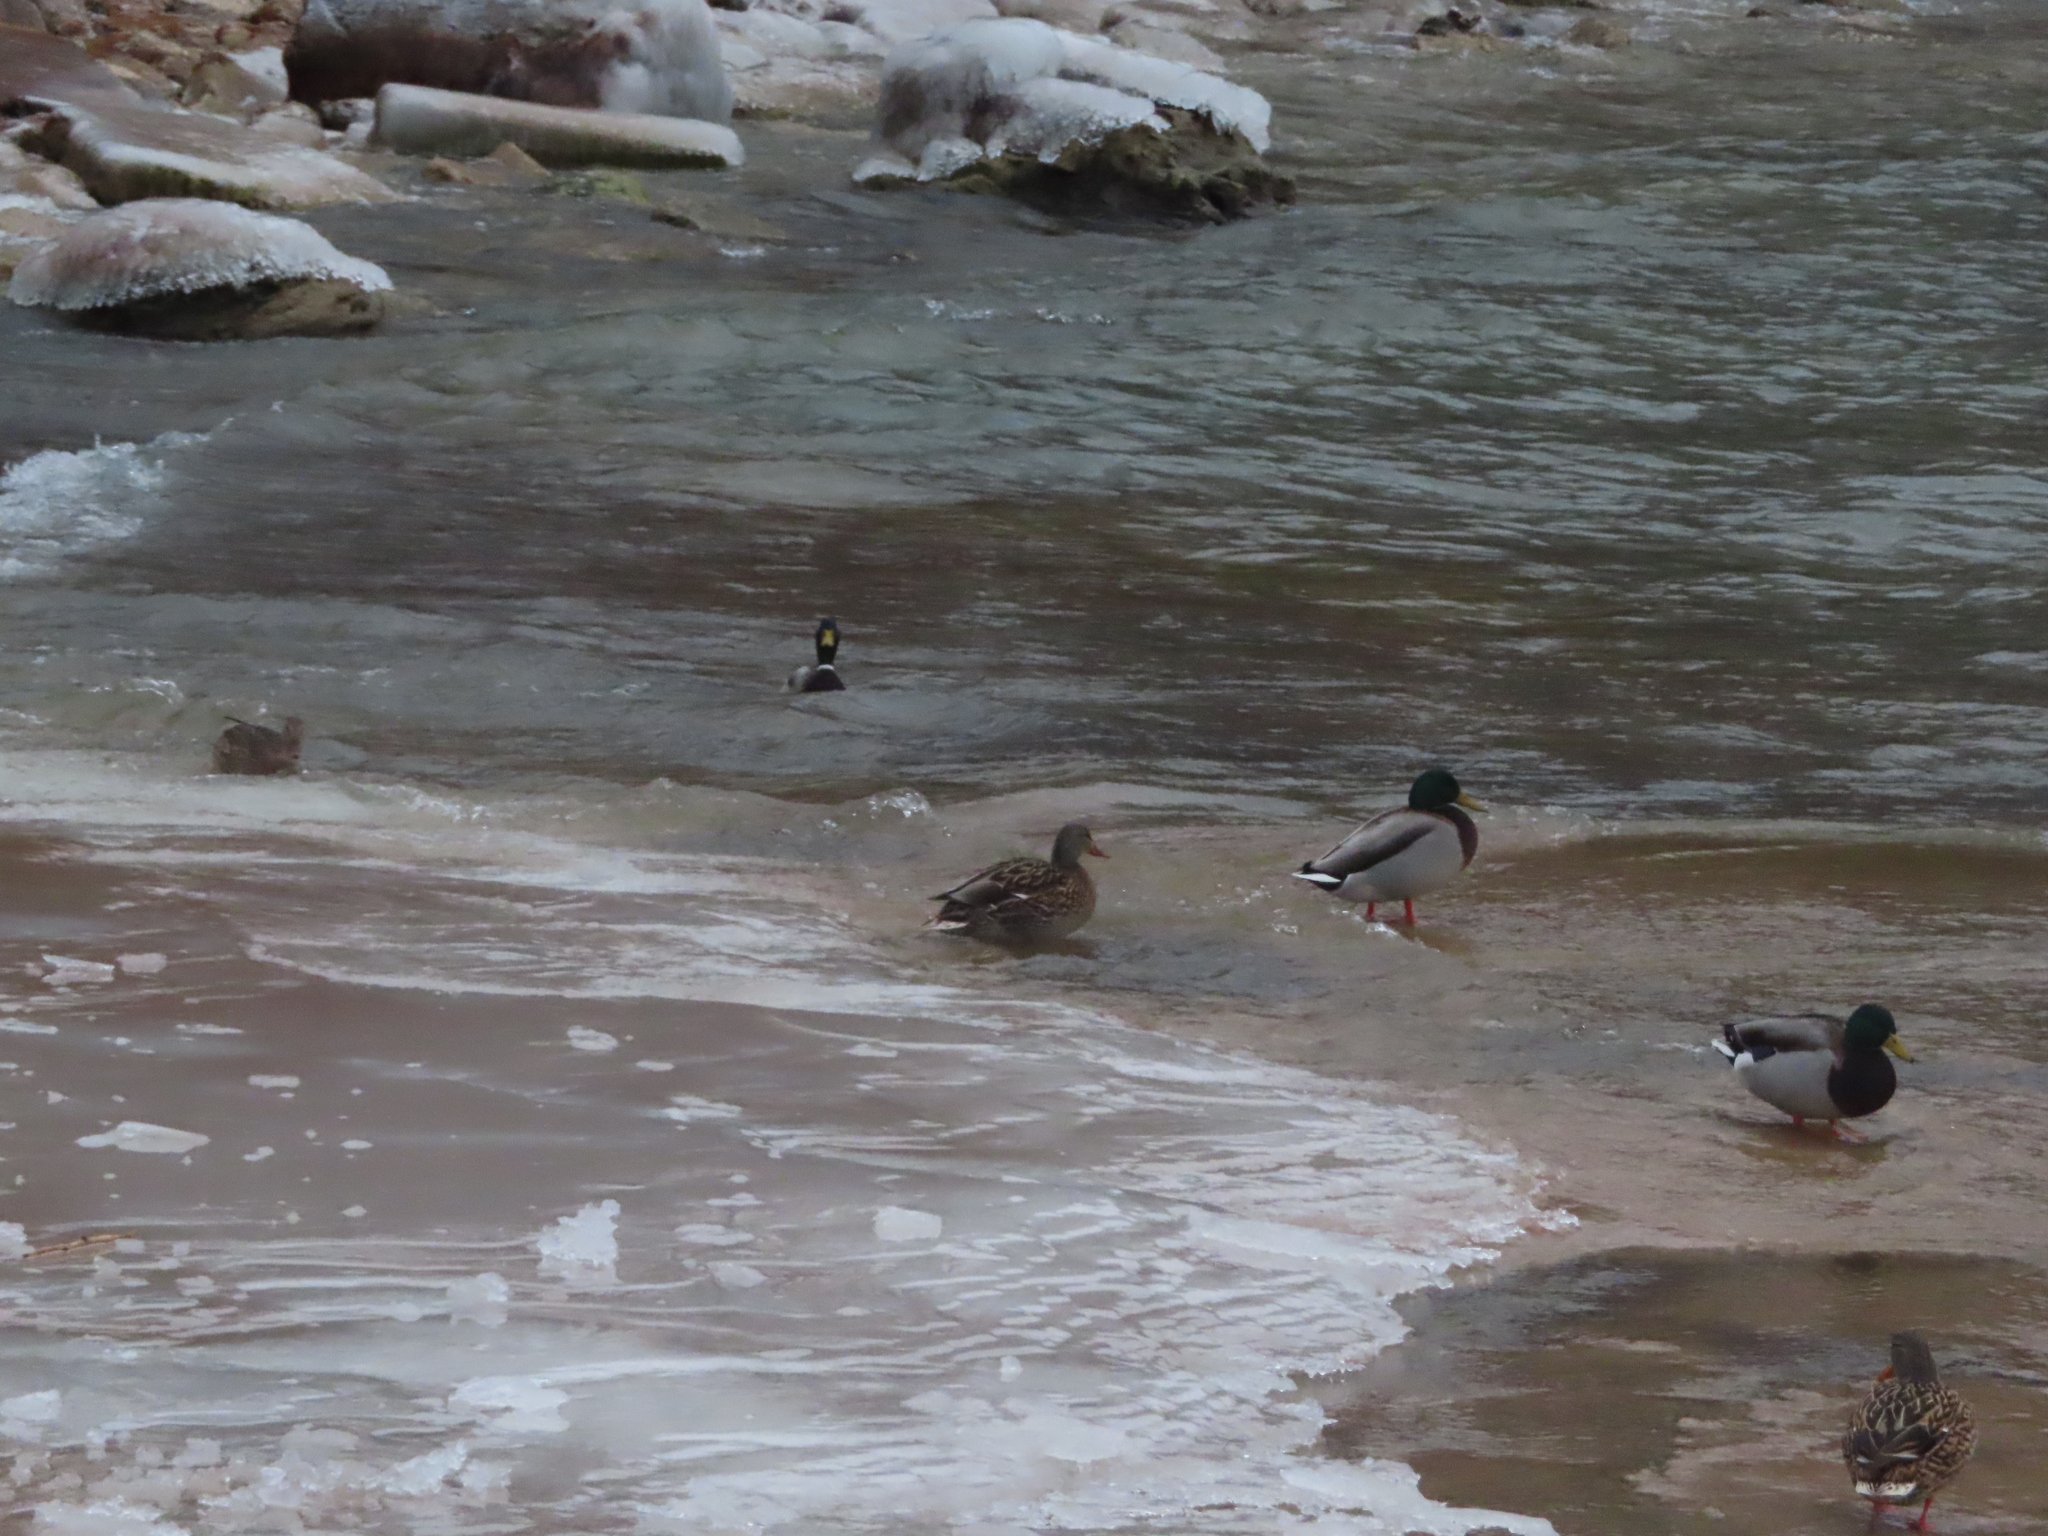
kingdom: Animalia
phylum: Chordata
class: Aves
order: Anseriformes
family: Anatidae
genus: Anas
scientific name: Anas platyrhynchos
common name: Mallard
